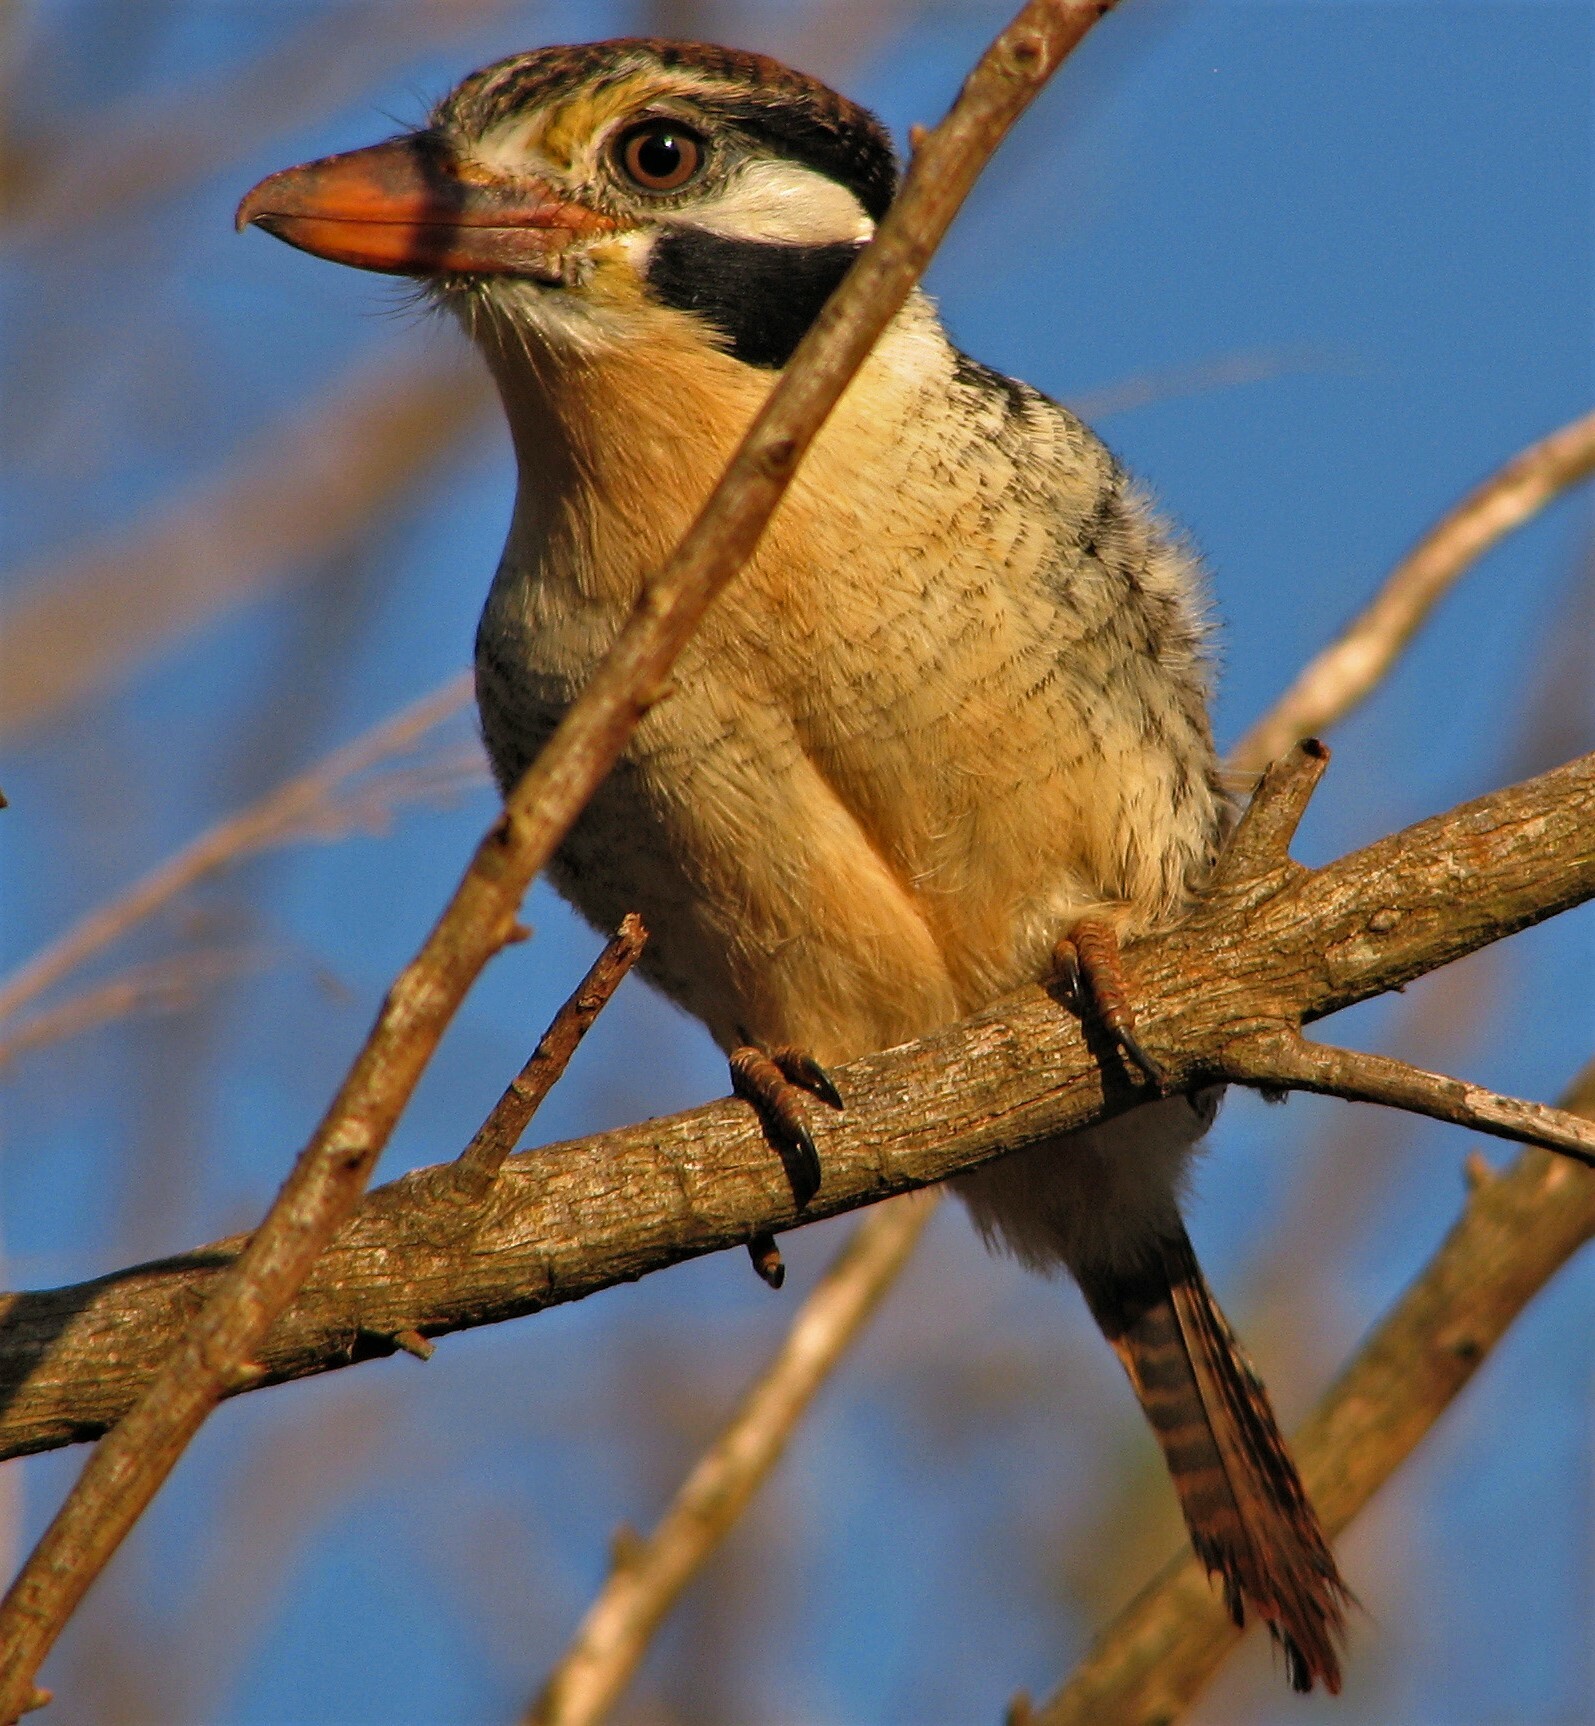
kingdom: Animalia
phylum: Chordata
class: Aves
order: Piciformes
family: Bucconidae
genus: Nystalus
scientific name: Nystalus chacuru
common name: White-eared puffbird
